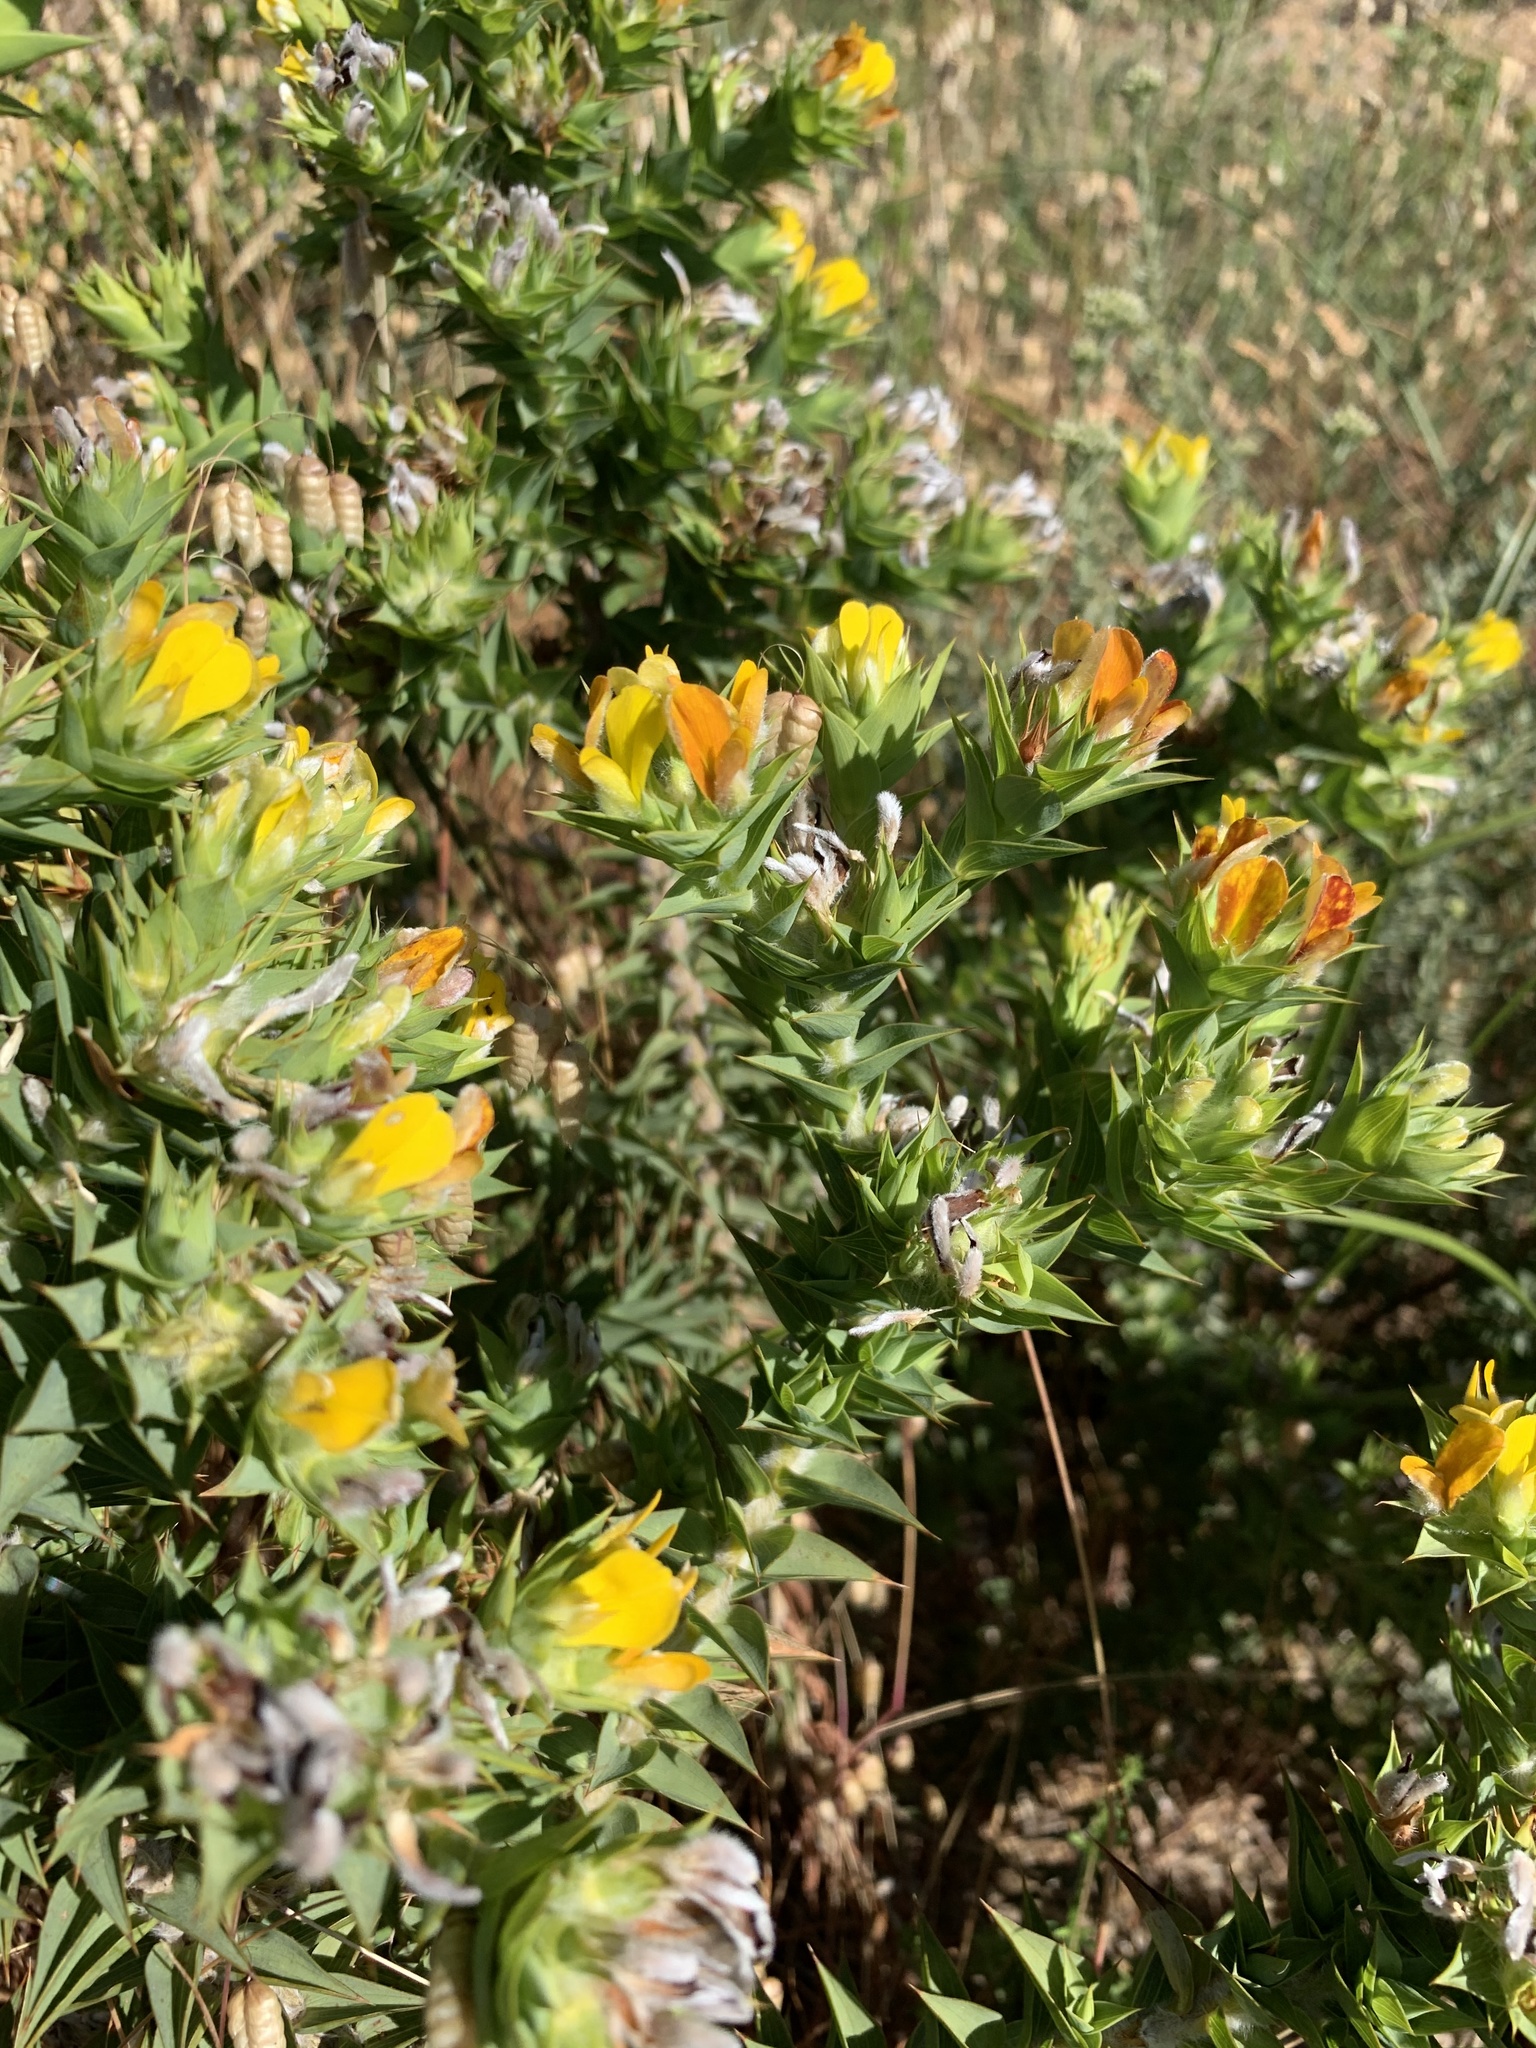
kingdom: Plantae
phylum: Tracheophyta
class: Magnoliopsida
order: Fabales
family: Fabaceae
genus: Aspalathus
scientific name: Aspalathus cordata
